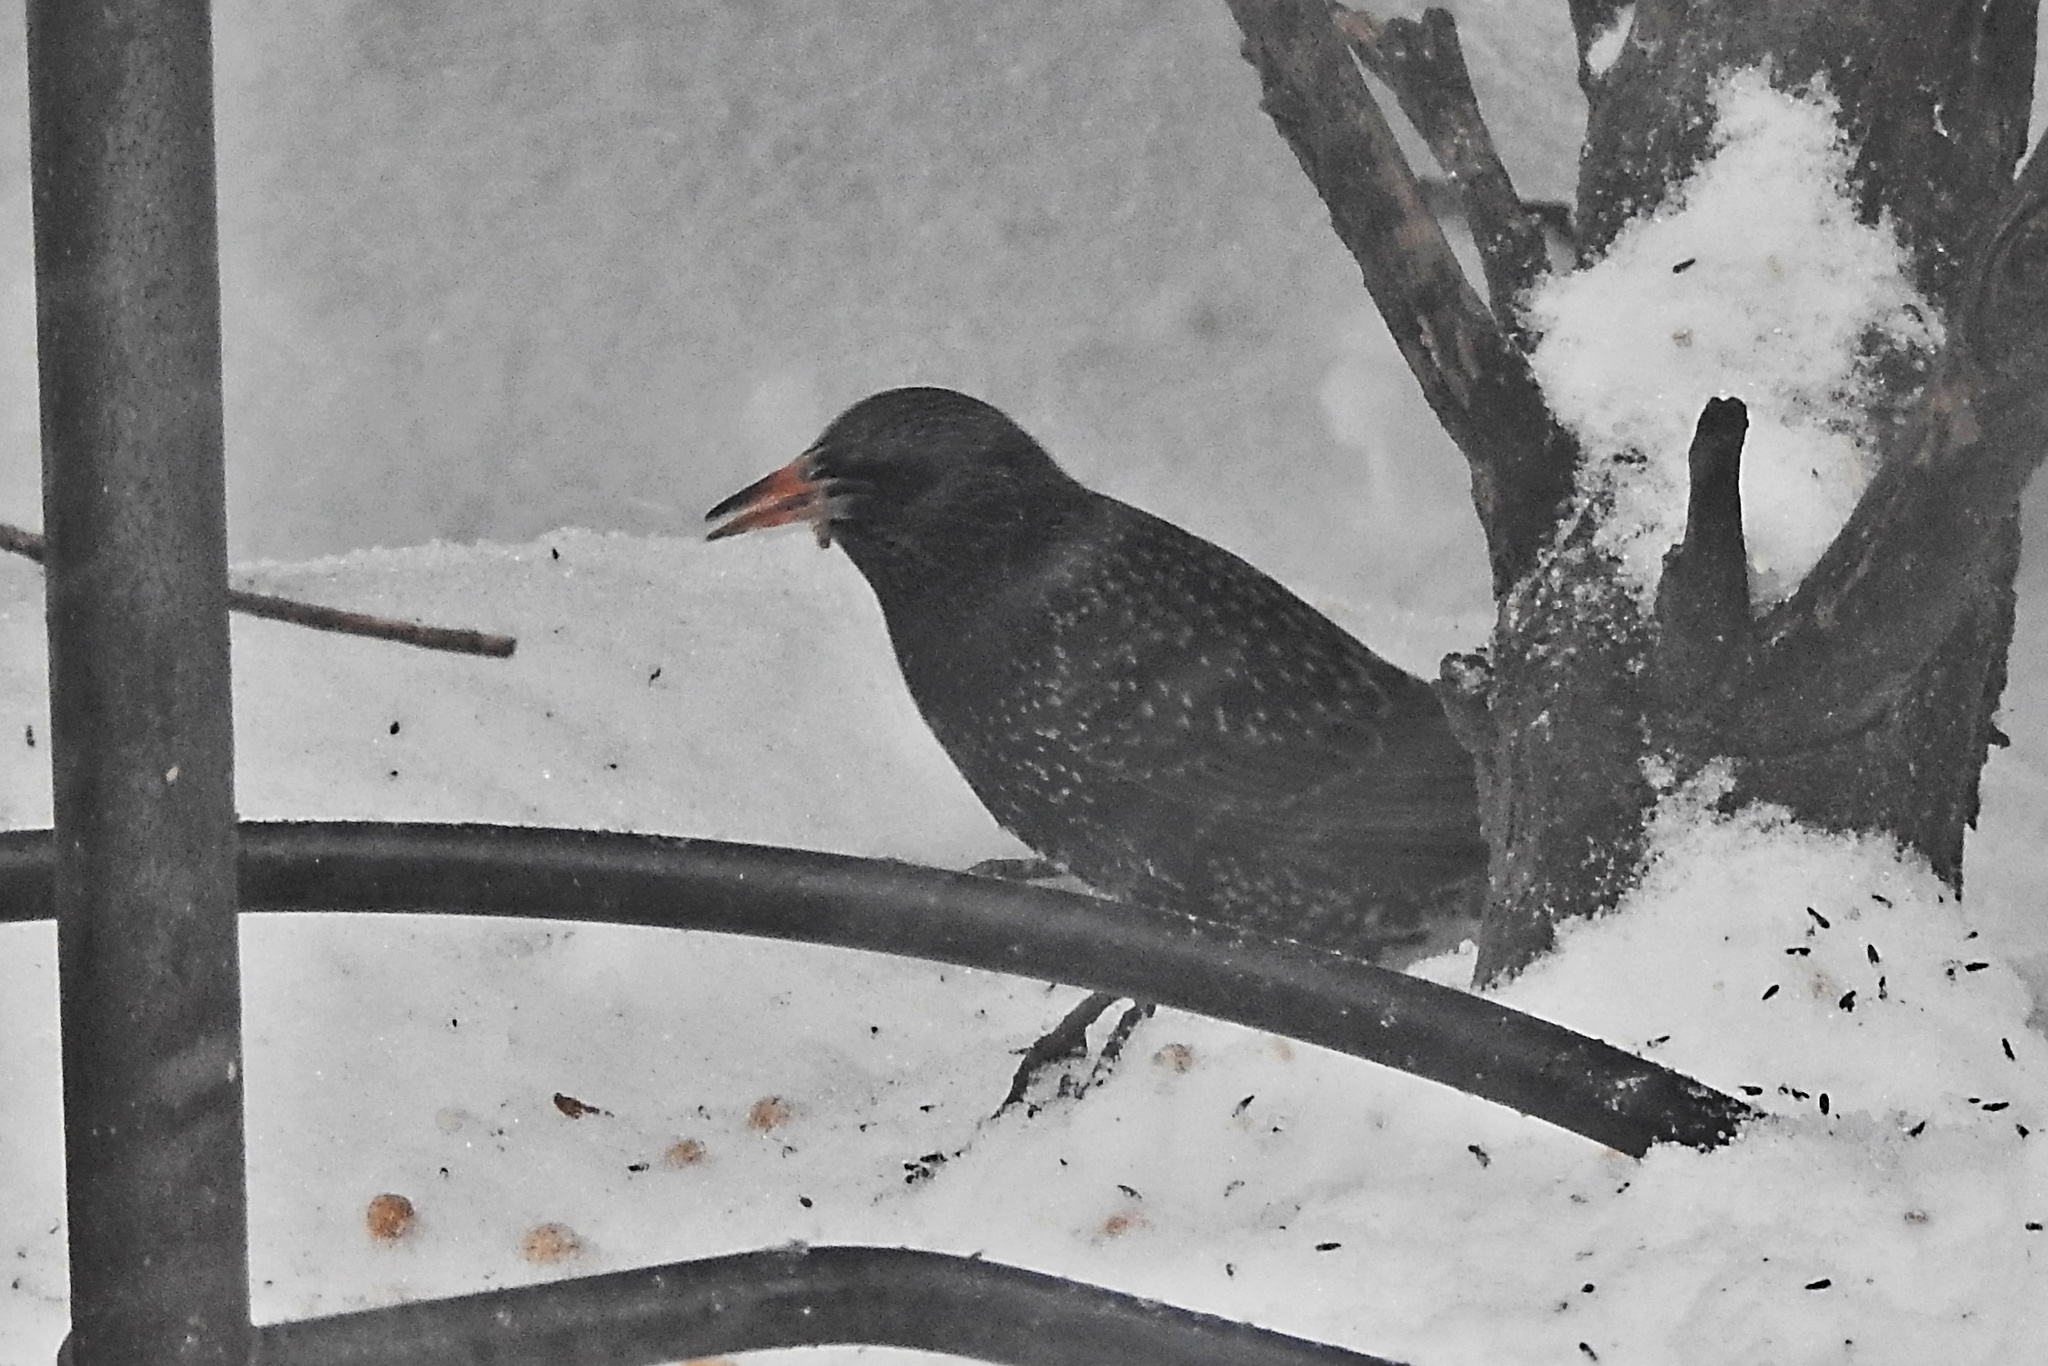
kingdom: Animalia
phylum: Chordata
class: Aves
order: Passeriformes
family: Sturnidae
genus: Sturnus
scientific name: Sturnus vulgaris
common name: Common starling
